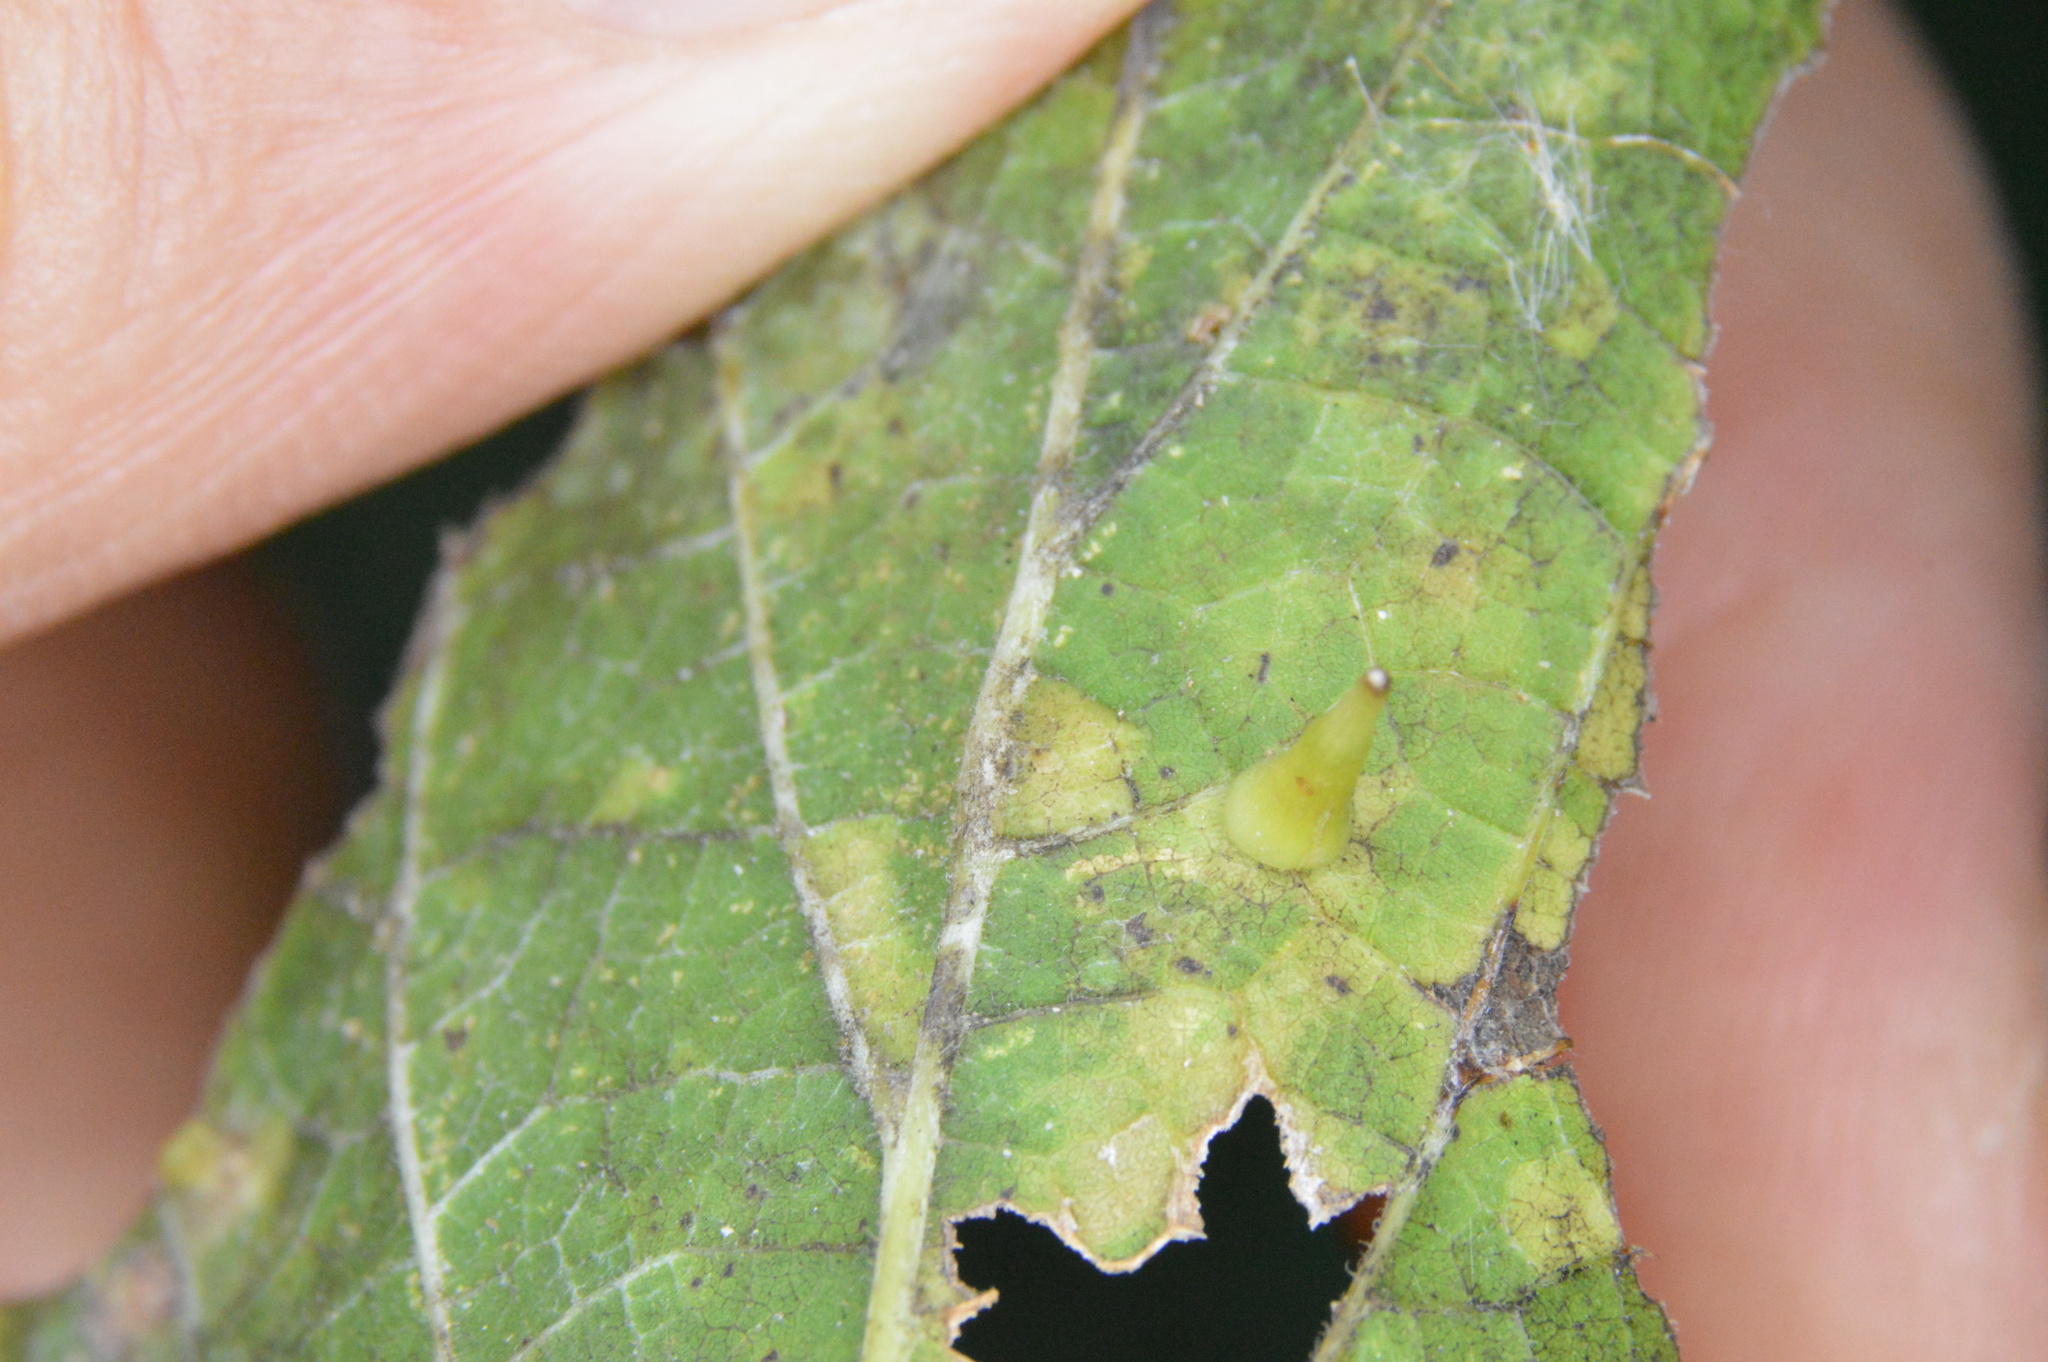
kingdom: Animalia
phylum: Arthropoda
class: Insecta
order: Diptera
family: Cecidomyiidae
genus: Celticecis
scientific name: Celticecis subulata
